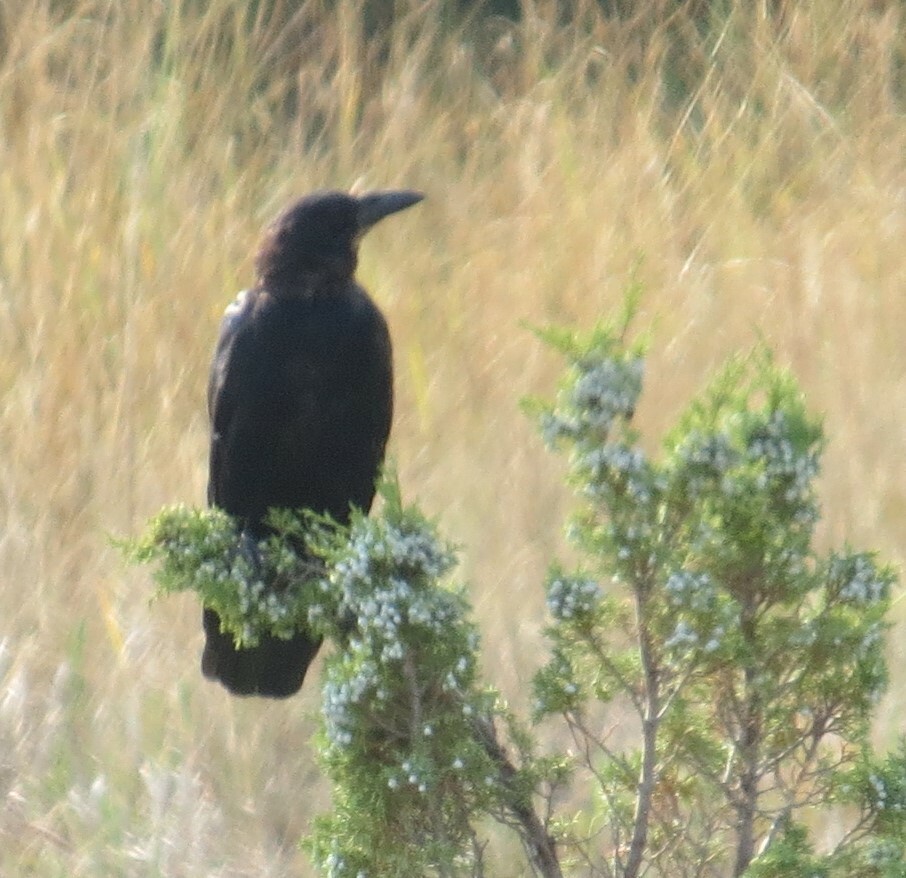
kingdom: Animalia
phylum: Chordata
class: Aves
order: Passeriformes
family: Corvidae
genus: Corvus
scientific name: Corvus brachyrhynchos
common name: American crow
